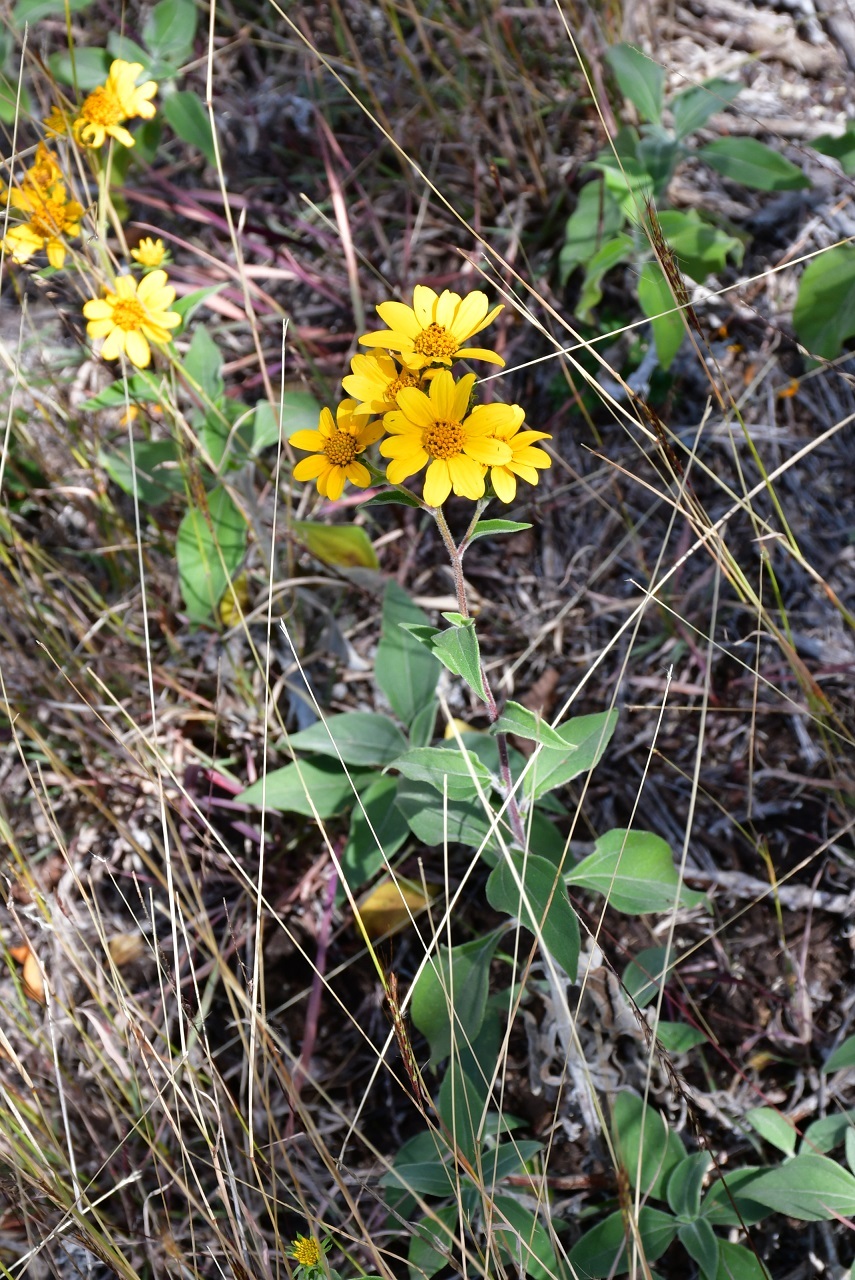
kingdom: Plantae
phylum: Tracheophyta
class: Magnoliopsida
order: Asterales
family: Asteraceae
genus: Verbesina
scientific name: Verbesina hypoglauca
